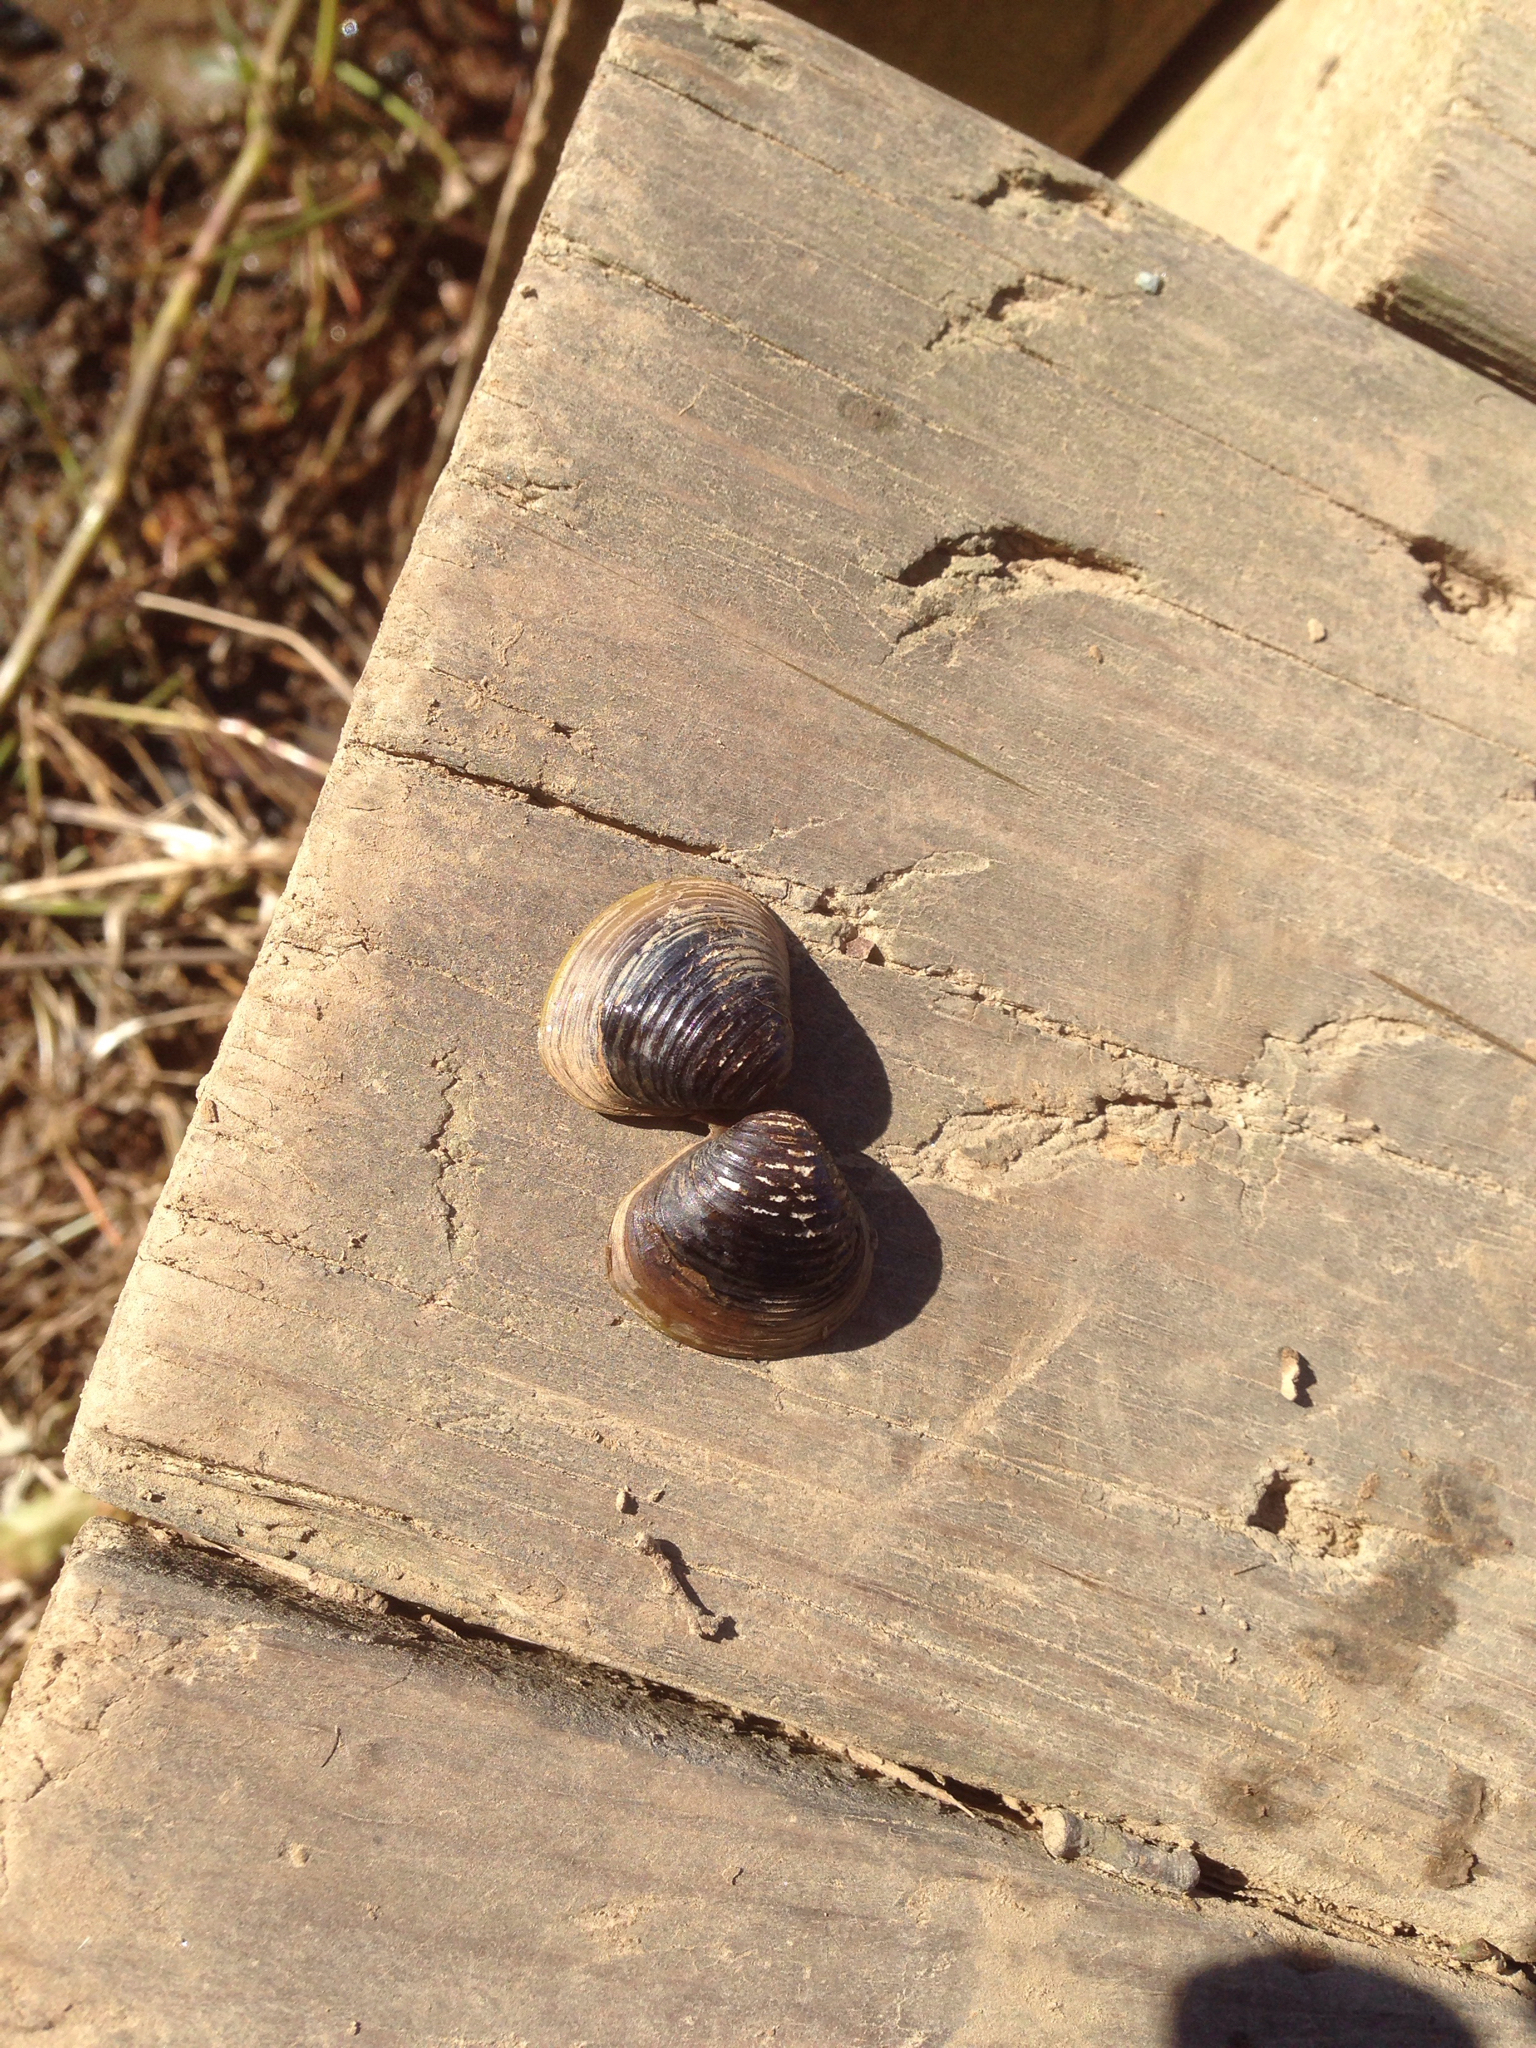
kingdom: Animalia
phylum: Mollusca
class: Bivalvia
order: Venerida
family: Cyrenidae
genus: Corbicula
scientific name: Corbicula fluminea
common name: Asian clam
